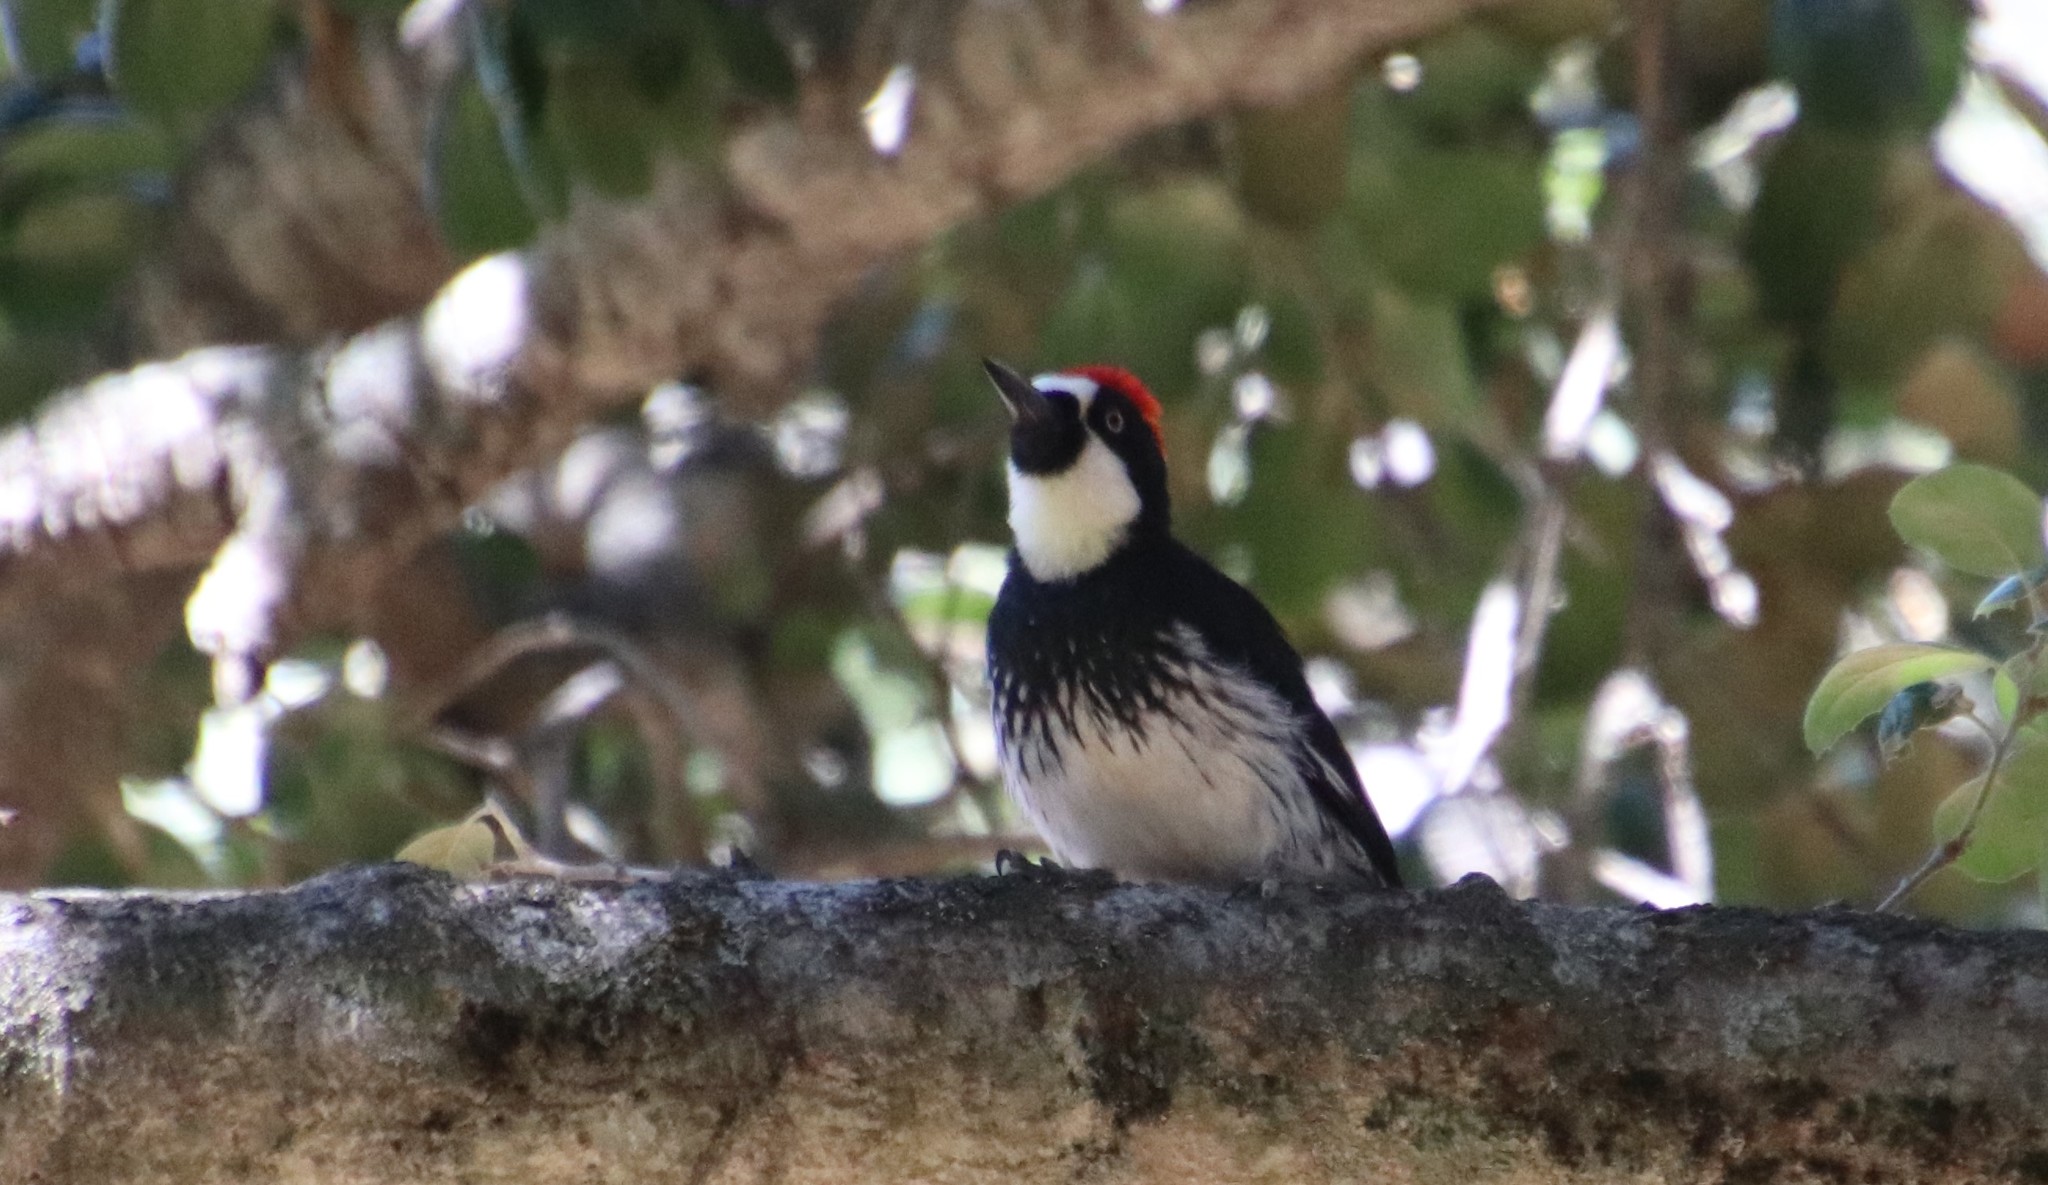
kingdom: Animalia
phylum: Chordata
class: Aves
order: Piciformes
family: Picidae
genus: Melanerpes
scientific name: Melanerpes formicivorus
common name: Acorn woodpecker
